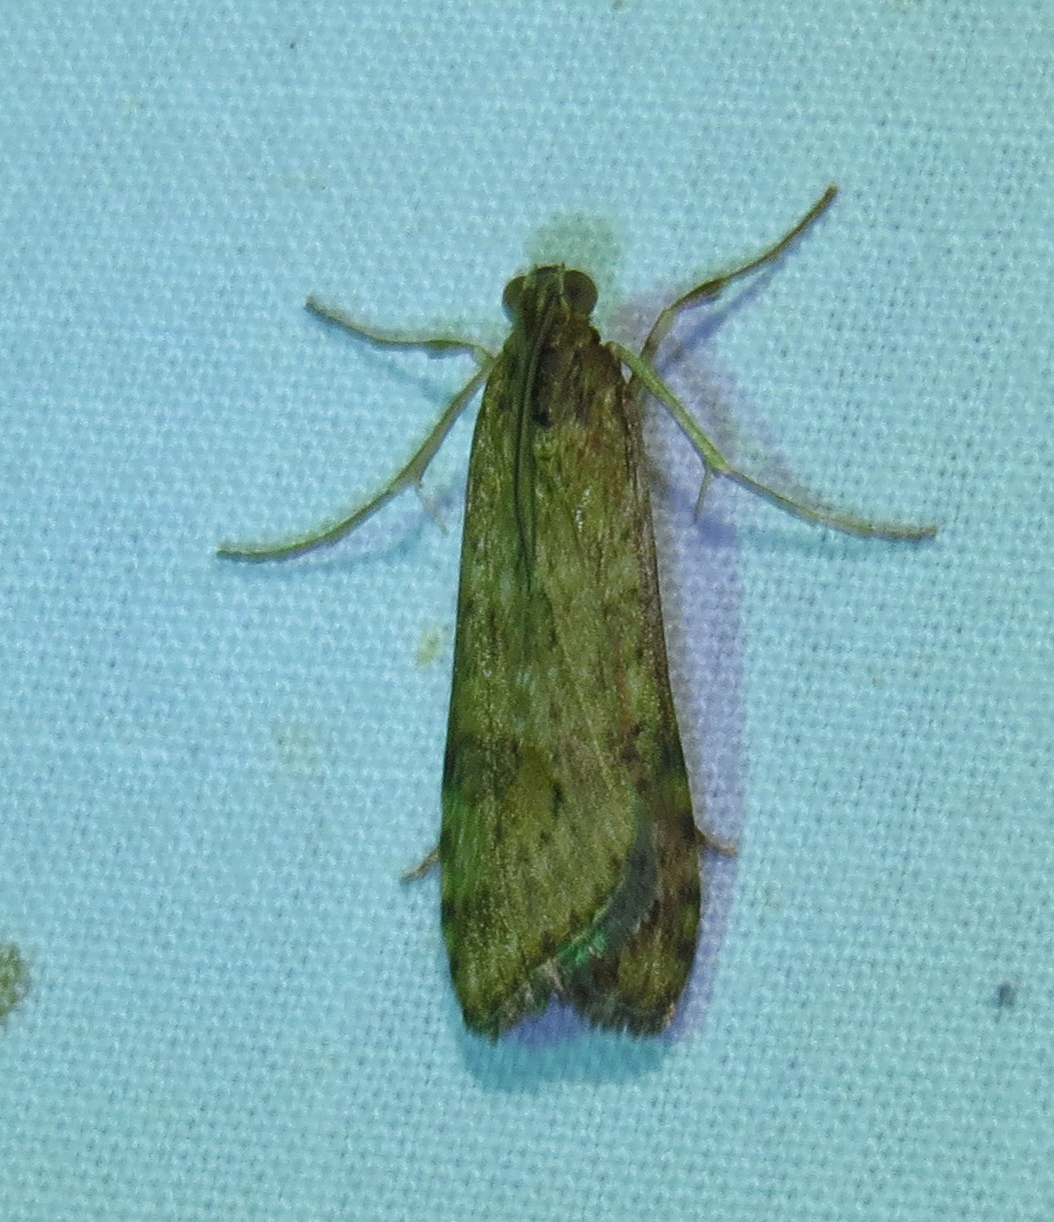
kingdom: Animalia
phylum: Arthropoda
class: Insecta
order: Lepidoptera
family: Crambidae
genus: Nomophila
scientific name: Nomophila nearctica
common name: American rush veneer
